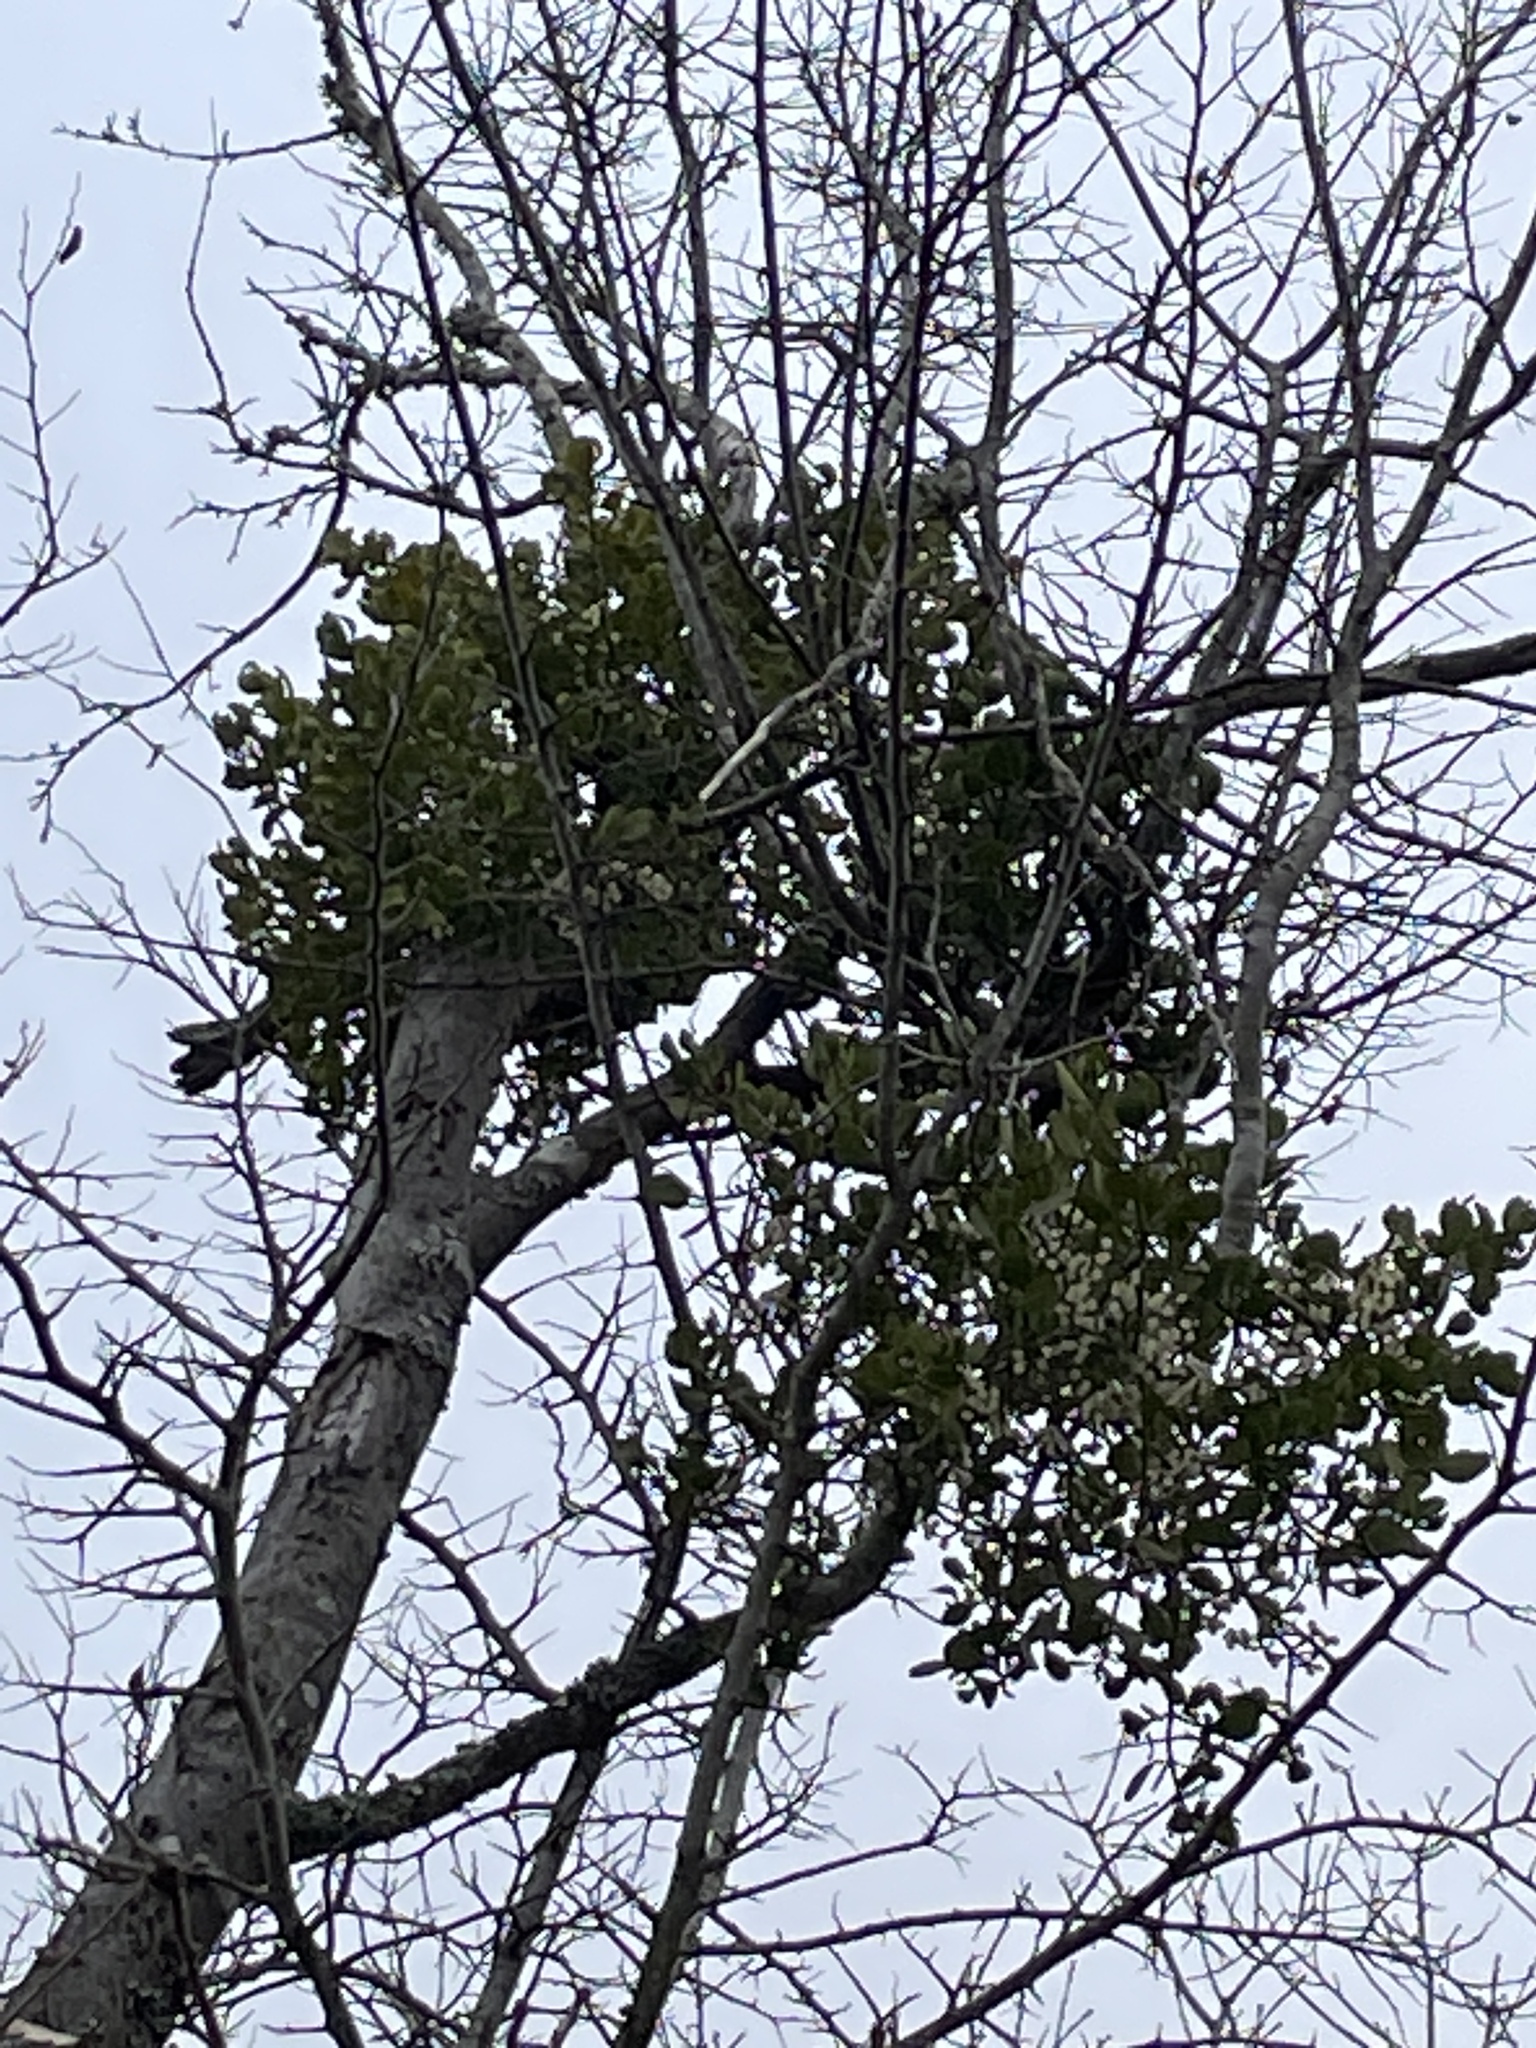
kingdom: Plantae
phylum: Tracheophyta
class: Magnoliopsida
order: Santalales
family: Viscaceae
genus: Phoradendron
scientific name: Phoradendron leucarpum
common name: Pacific mistletoe
